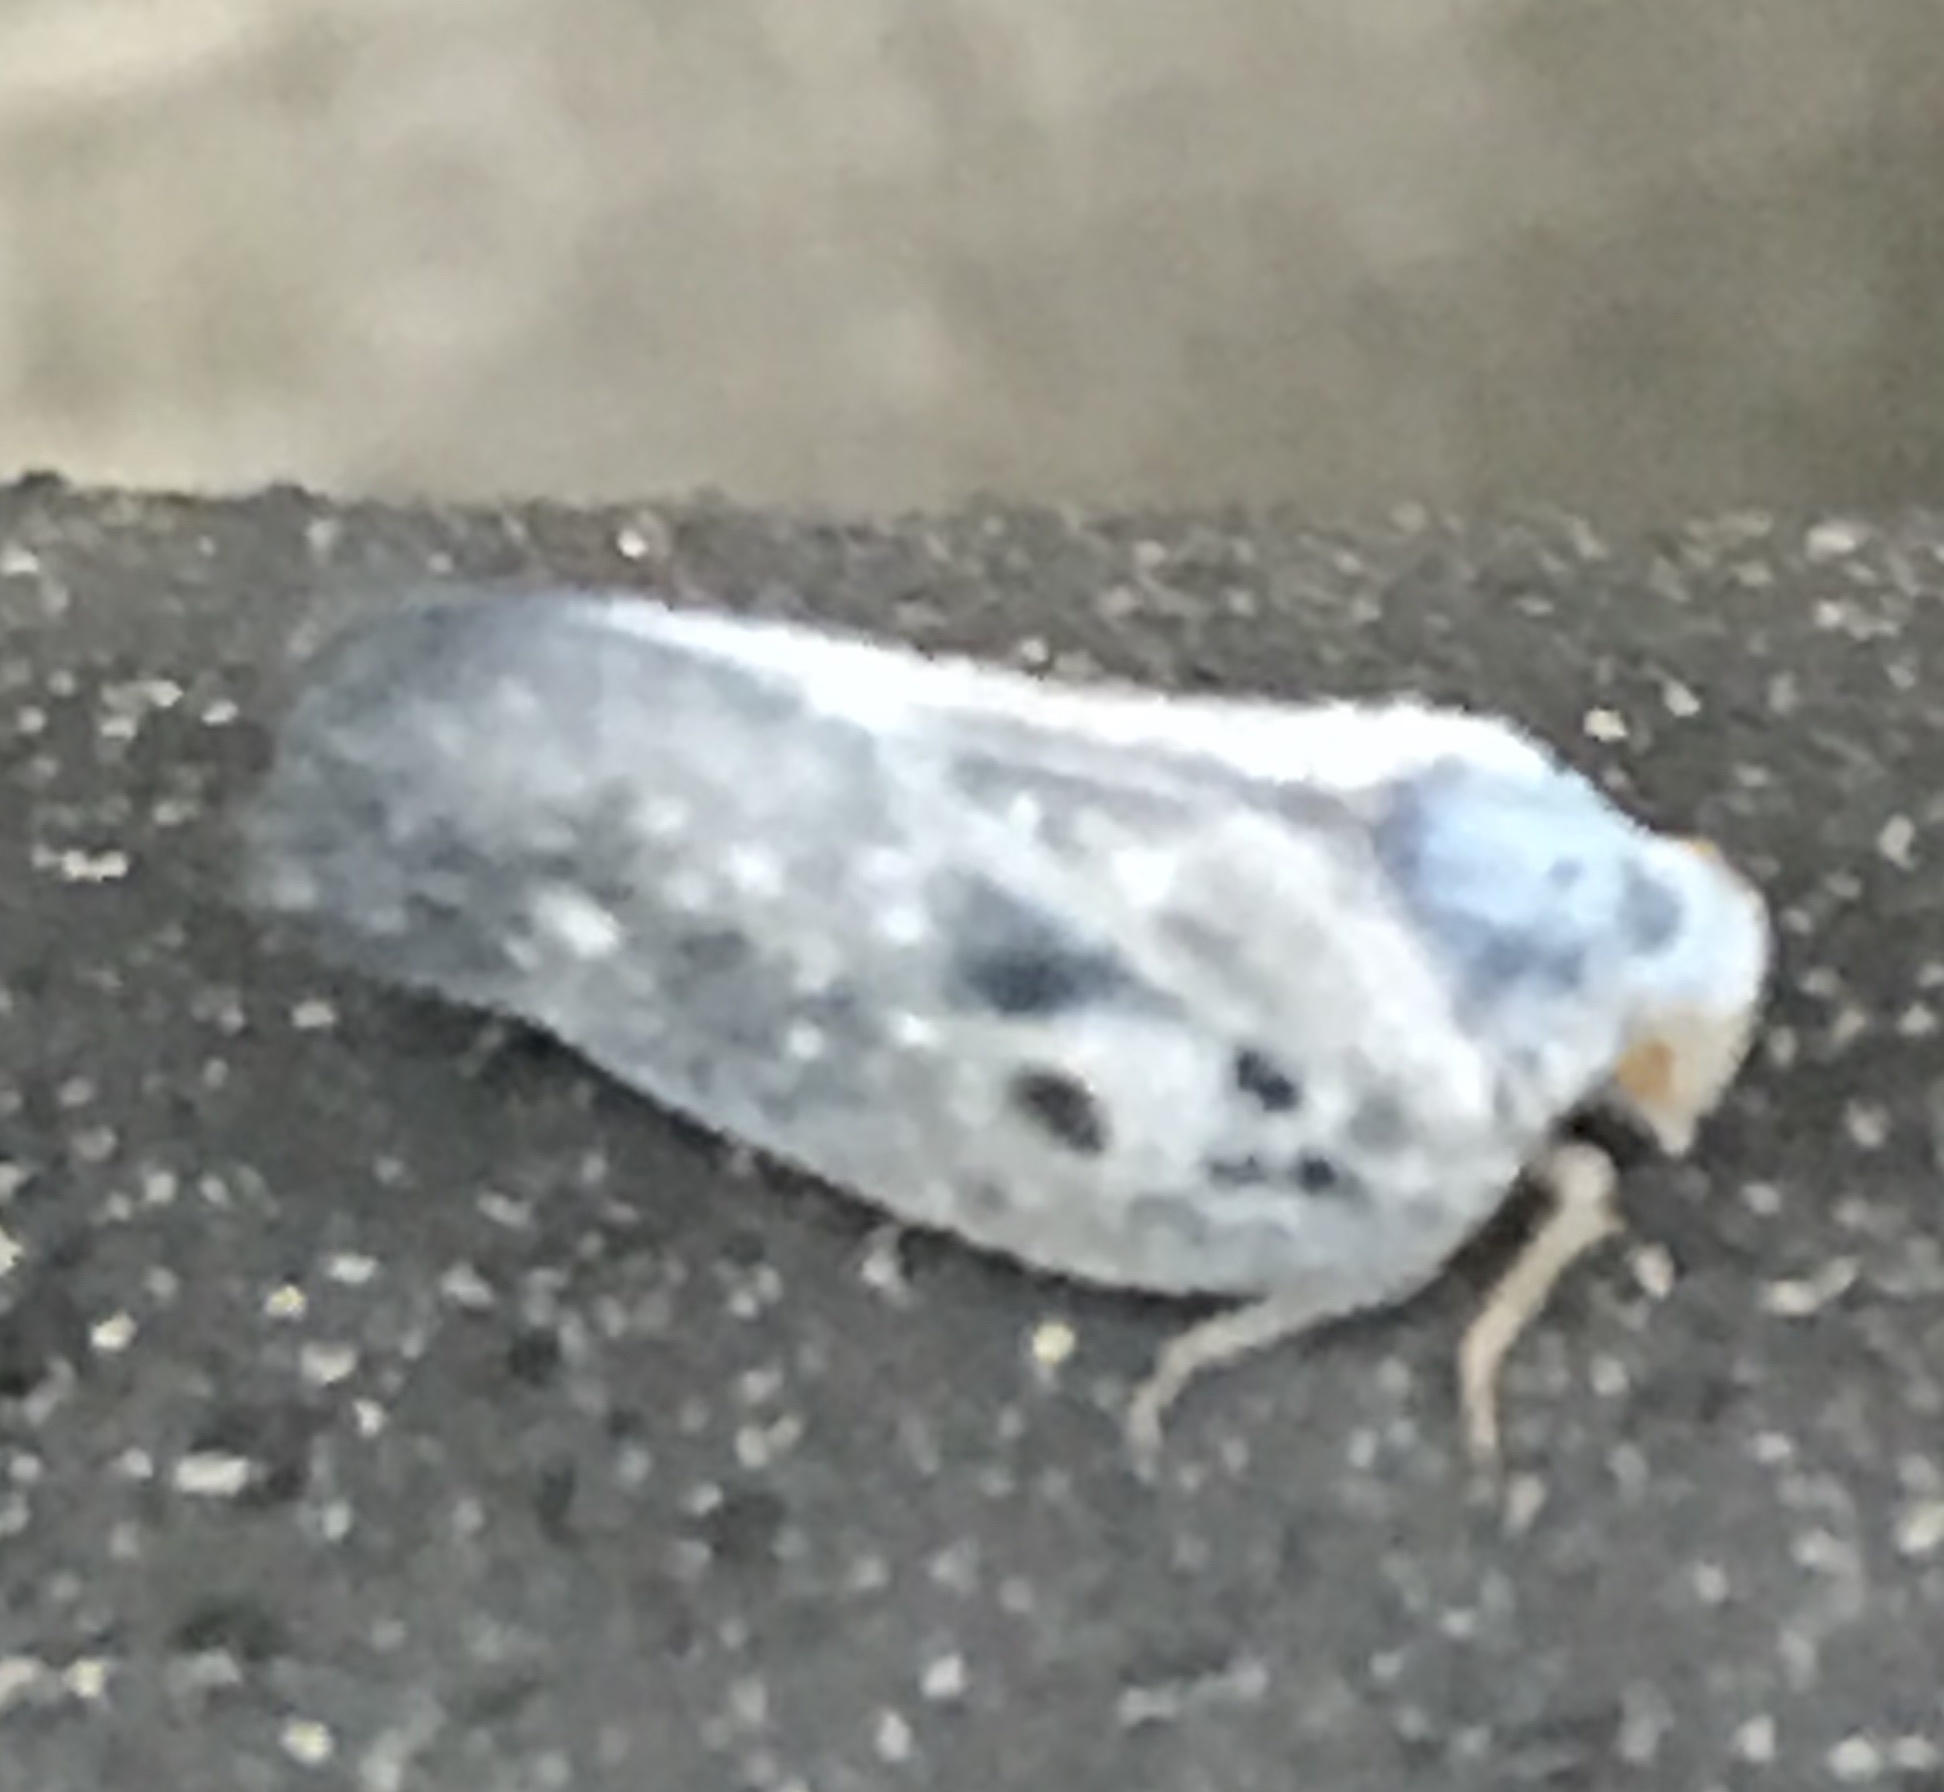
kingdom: Animalia
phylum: Arthropoda
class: Insecta
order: Hemiptera
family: Flatidae
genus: Metcalfa
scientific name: Metcalfa pruinosa
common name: Citrus flatid planthopper
